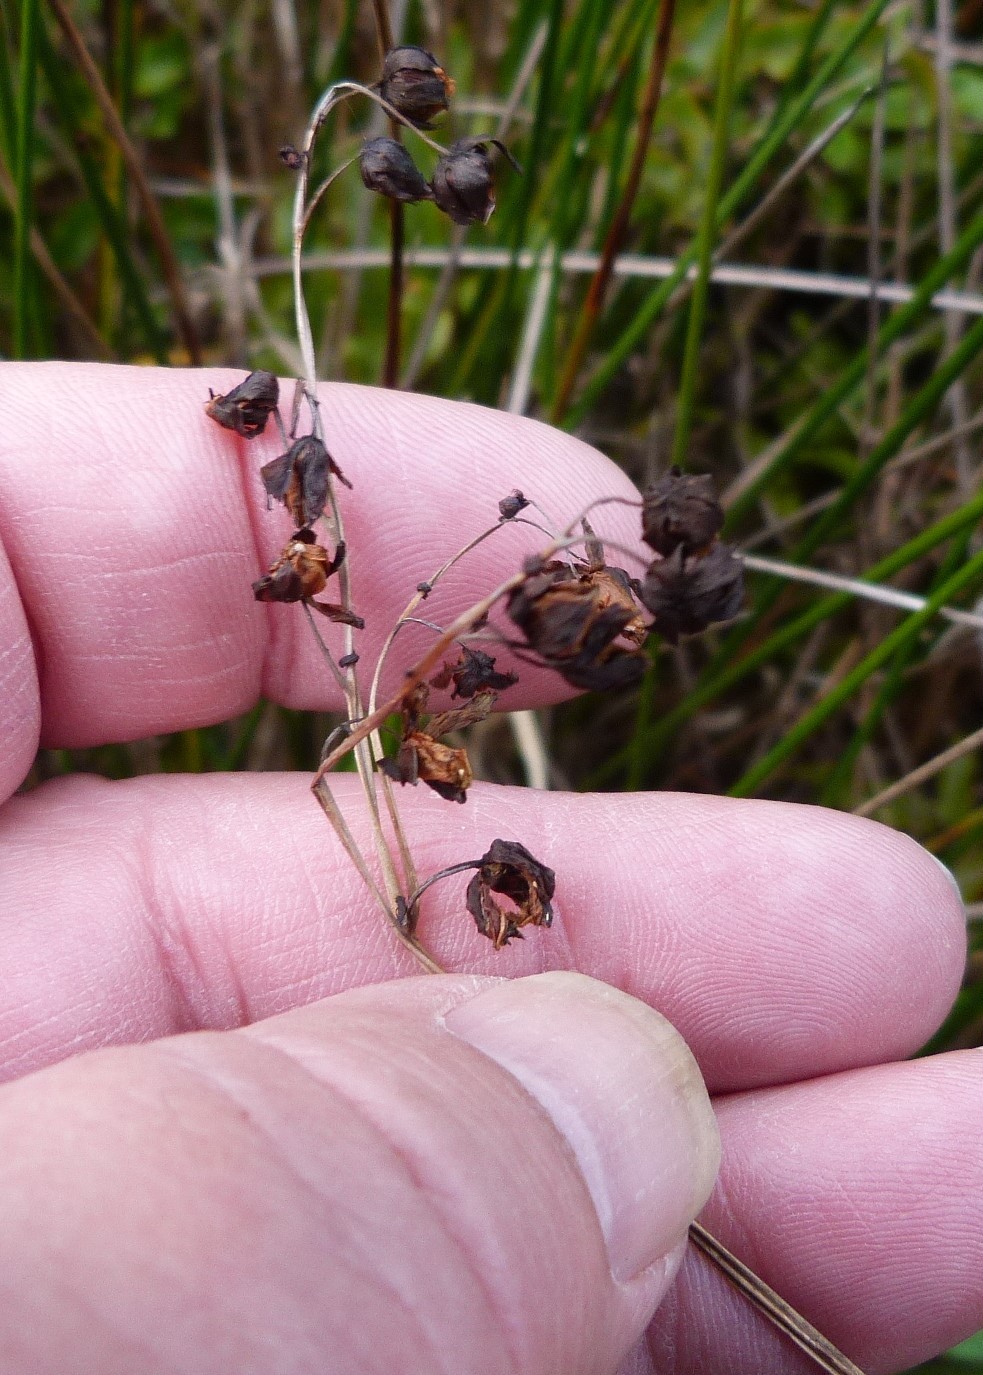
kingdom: Plantae
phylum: Tracheophyta
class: Magnoliopsida
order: Caryophyllales
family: Droseraceae
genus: Drosera
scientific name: Drosera binata
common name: Forked sundew
